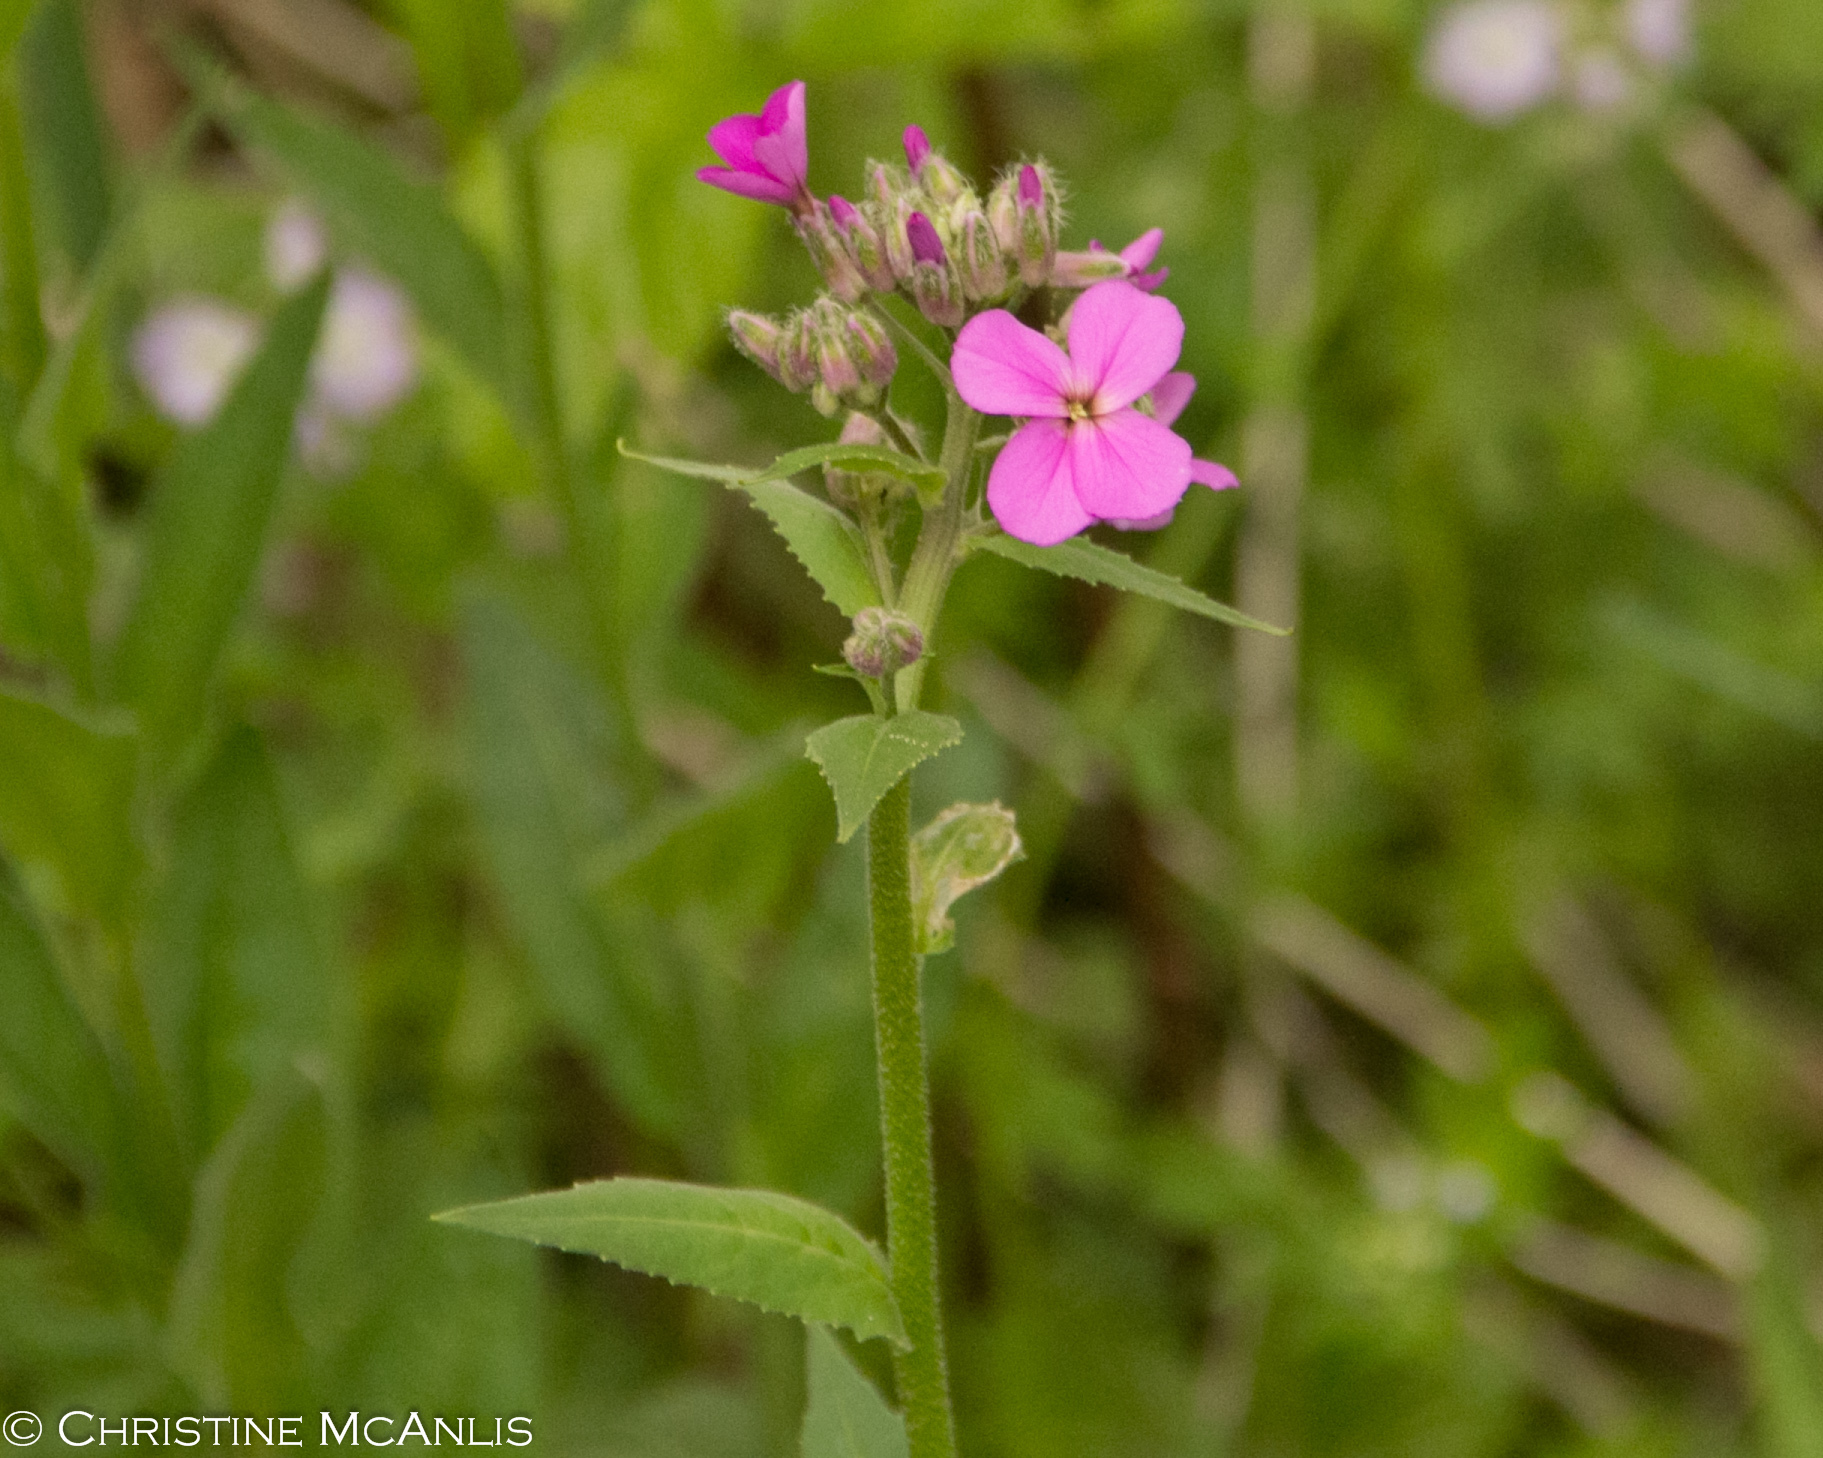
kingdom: Plantae
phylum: Tracheophyta
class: Magnoliopsida
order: Brassicales
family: Brassicaceae
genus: Hesperis
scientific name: Hesperis matronalis
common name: Dame's-violet
